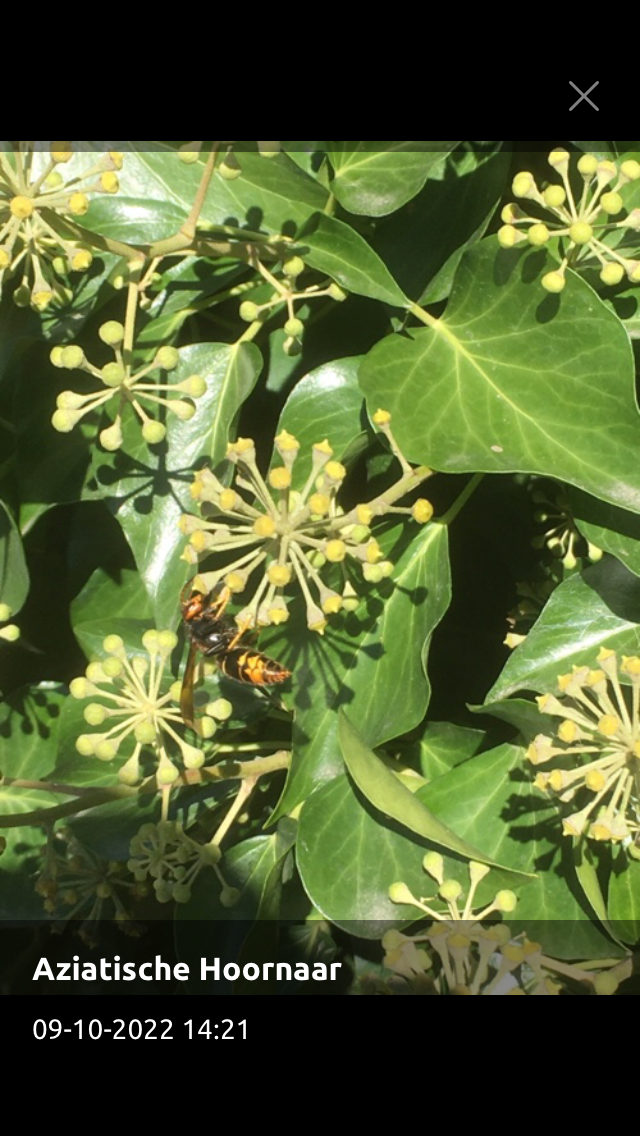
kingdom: Animalia
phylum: Arthropoda
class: Insecta
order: Hymenoptera
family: Vespidae
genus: Vespa
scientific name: Vespa velutina
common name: Asian hornet
